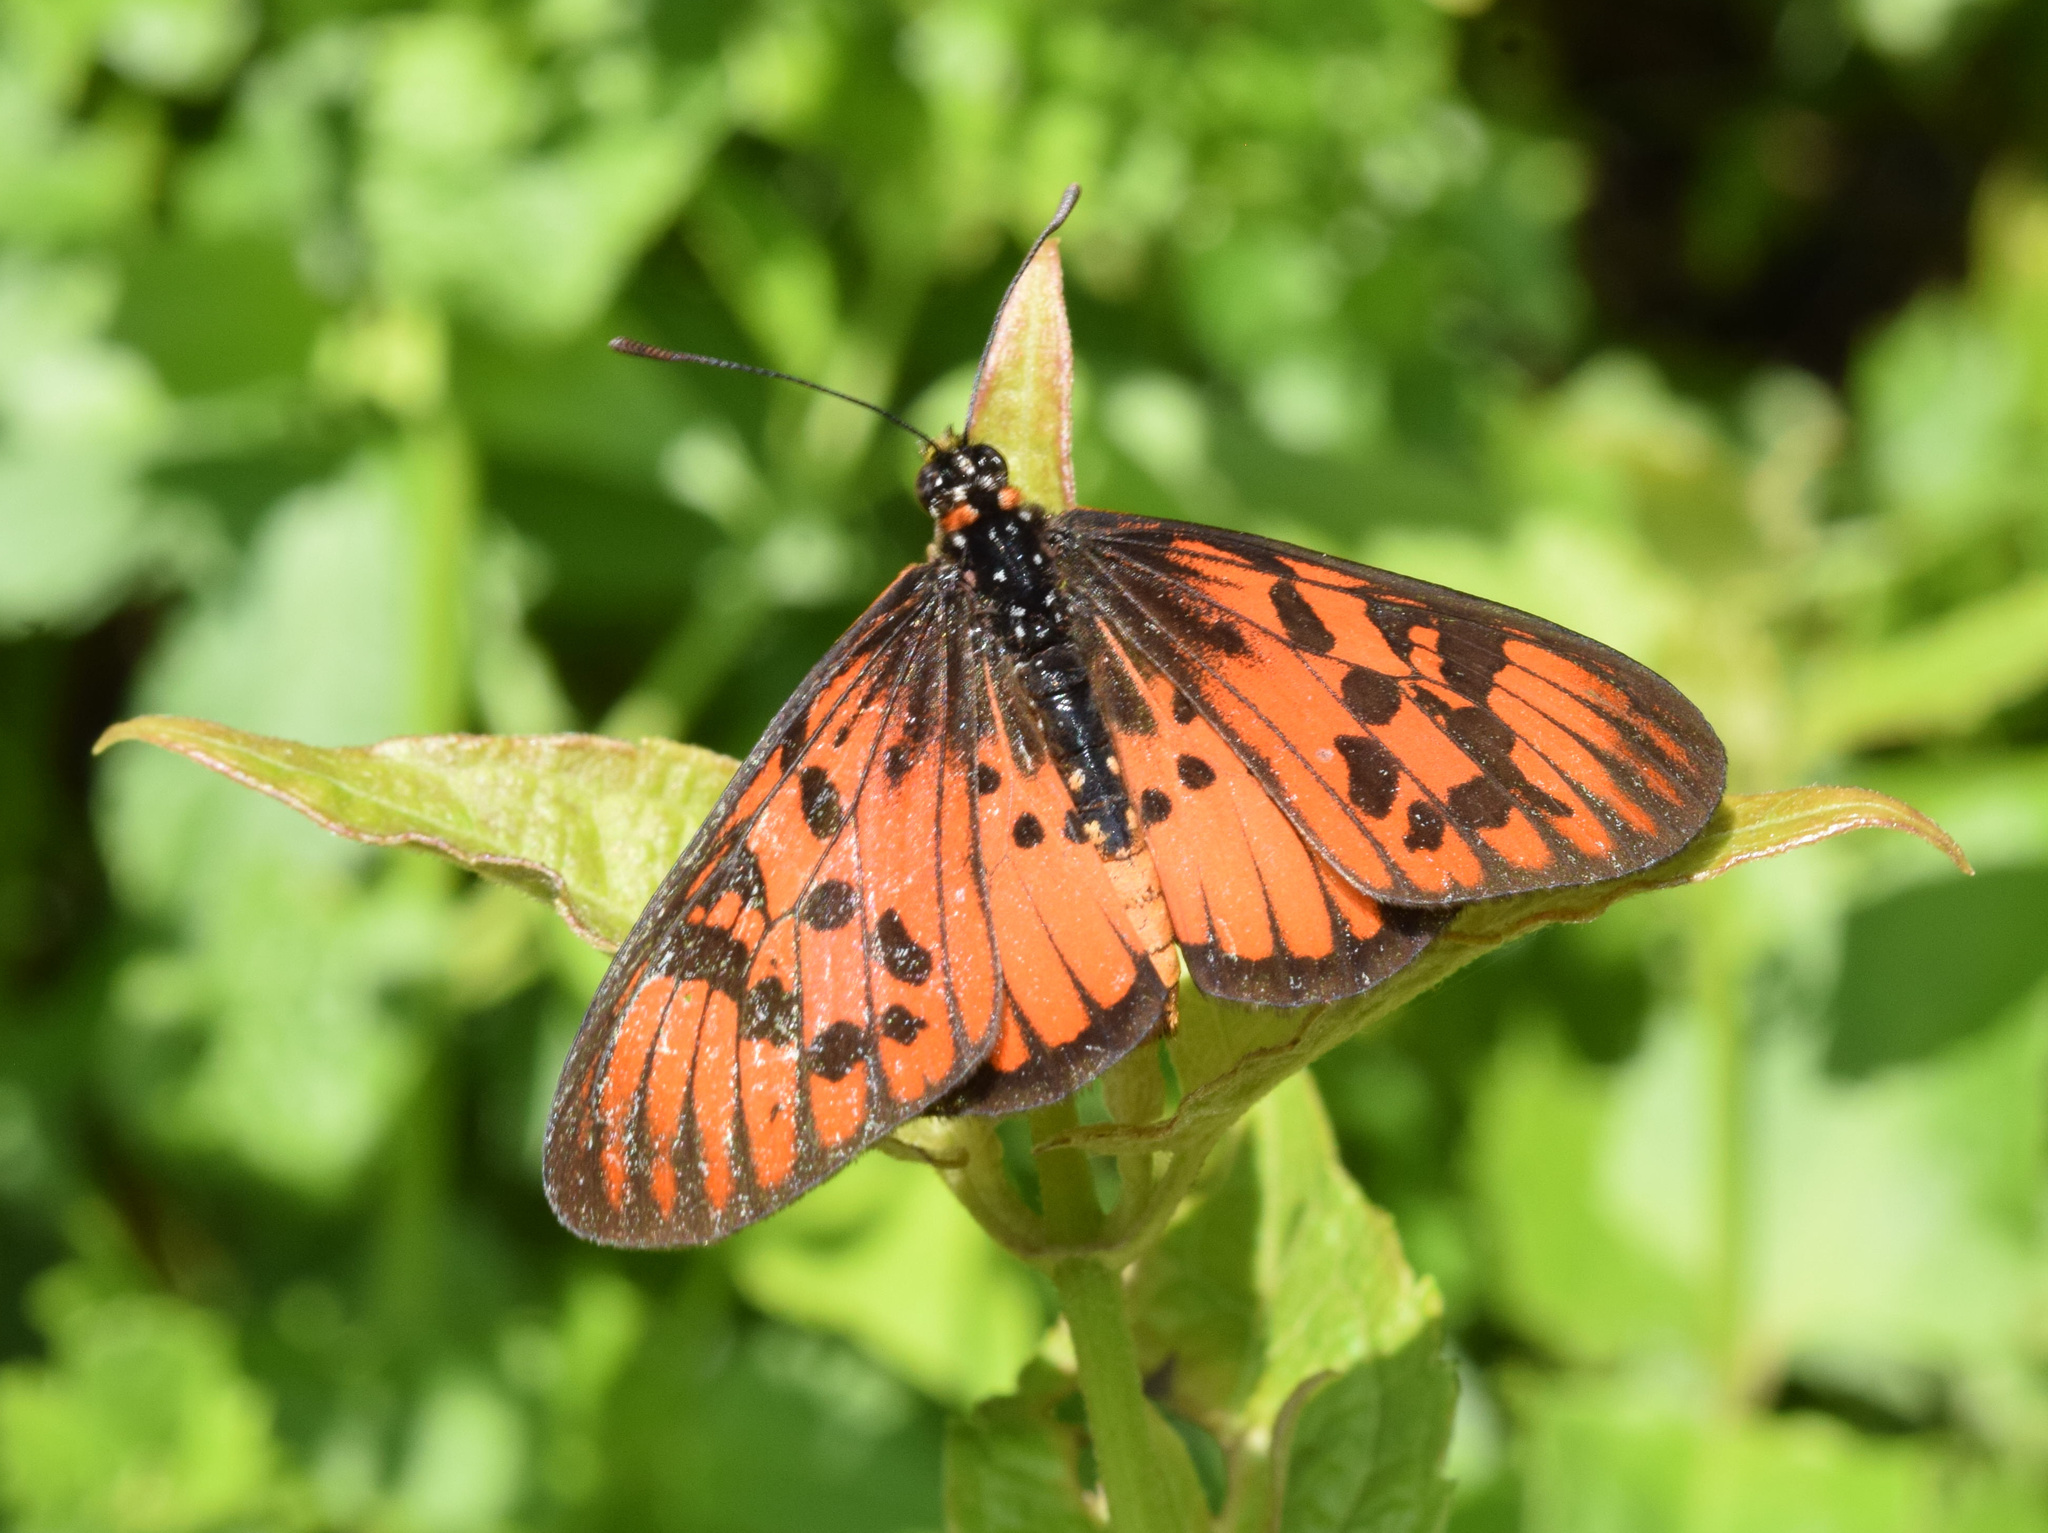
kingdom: Animalia
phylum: Arthropoda
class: Insecta
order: Lepidoptera
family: Nymphalidae
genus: Rubraea
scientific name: Rubraea
